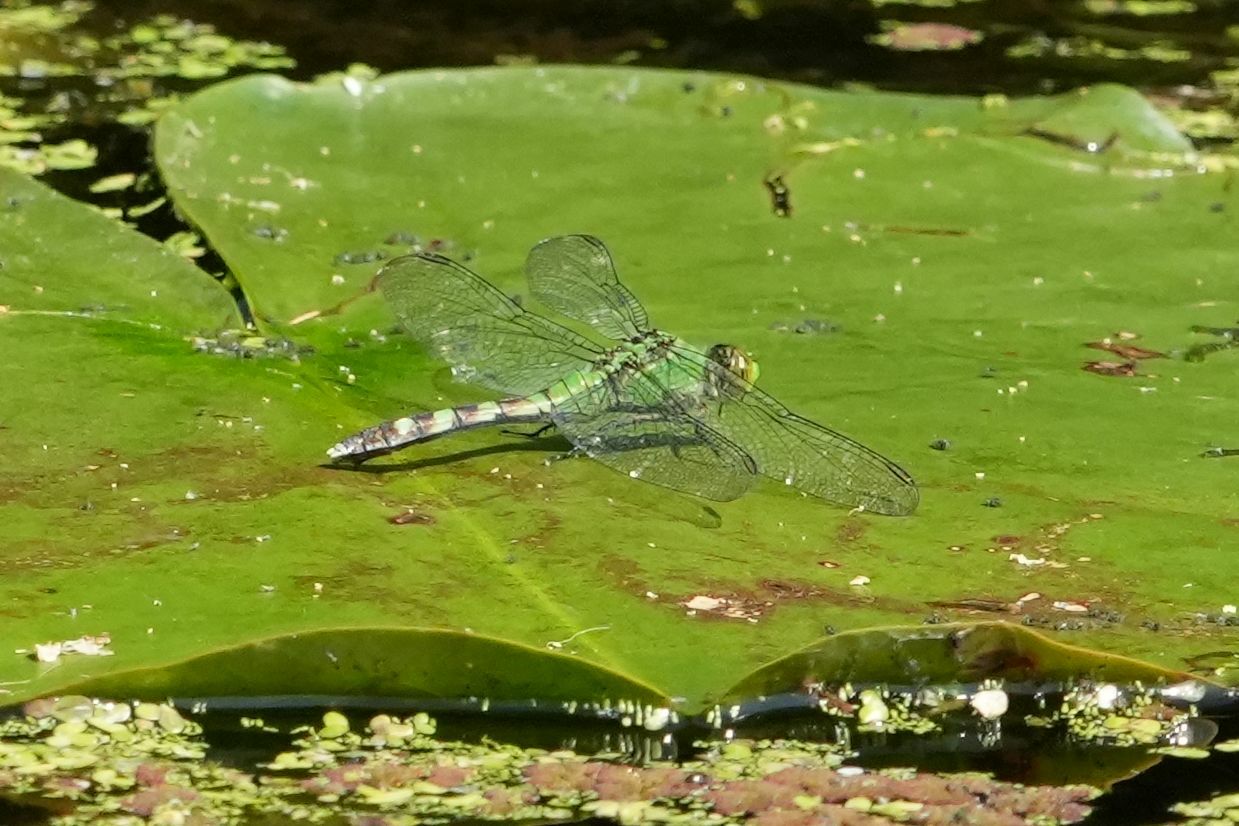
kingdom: Animalia
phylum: Arthropoda
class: Insecta
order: Odonata
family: Libellulidae
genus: Erythemis
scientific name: Erythemis simplicicollis
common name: Eastern pondhawk
